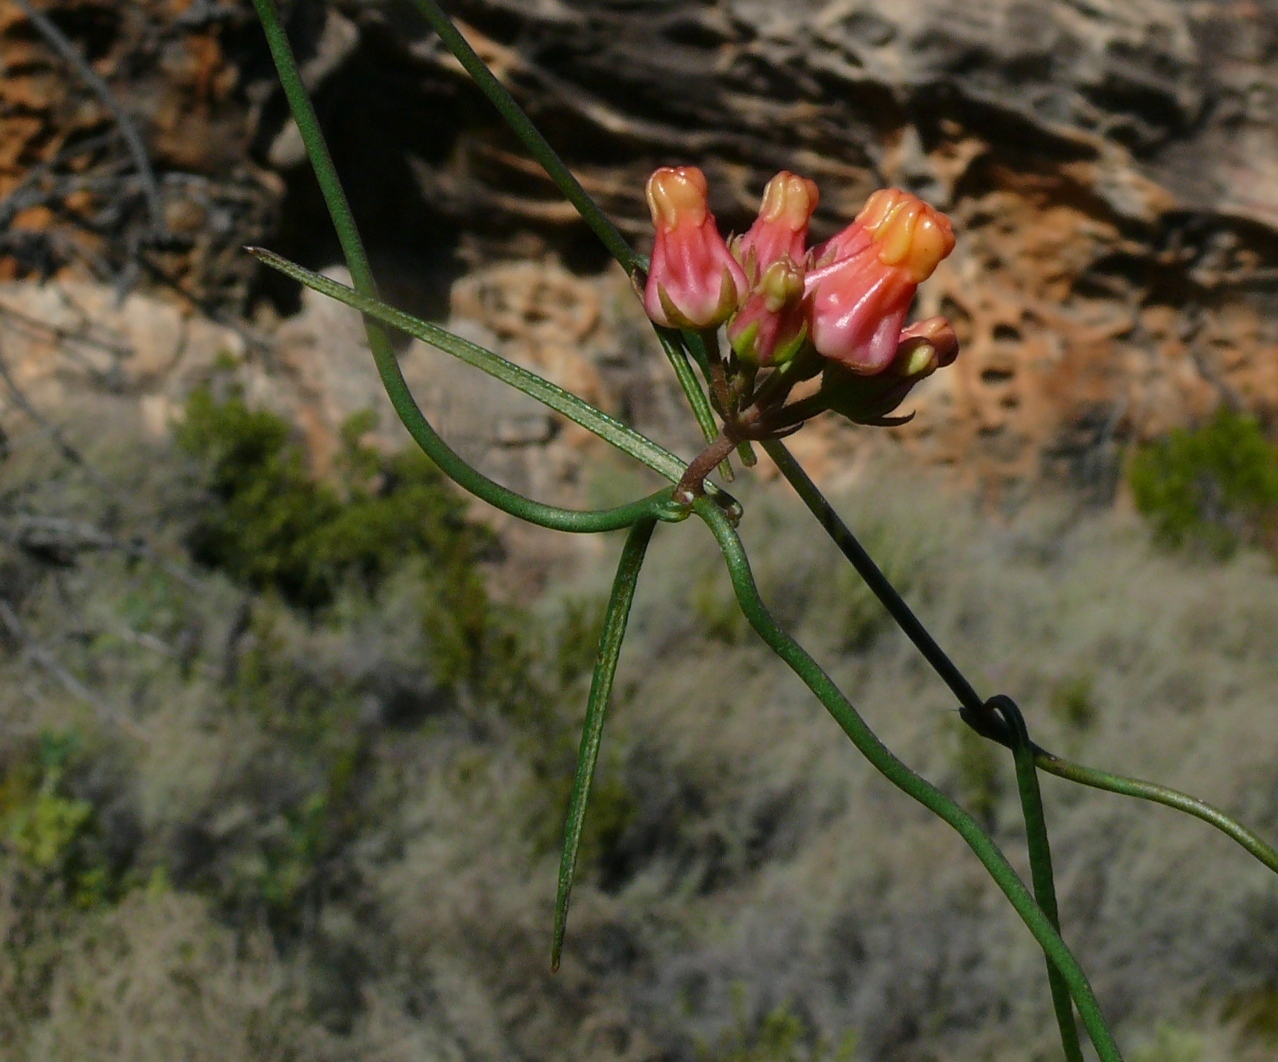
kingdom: Plantae
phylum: Tracheophyta
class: Magnoliopsida
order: Gentianales
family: Apocynaceae
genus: Microloma
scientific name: Microloma tenuifolium
